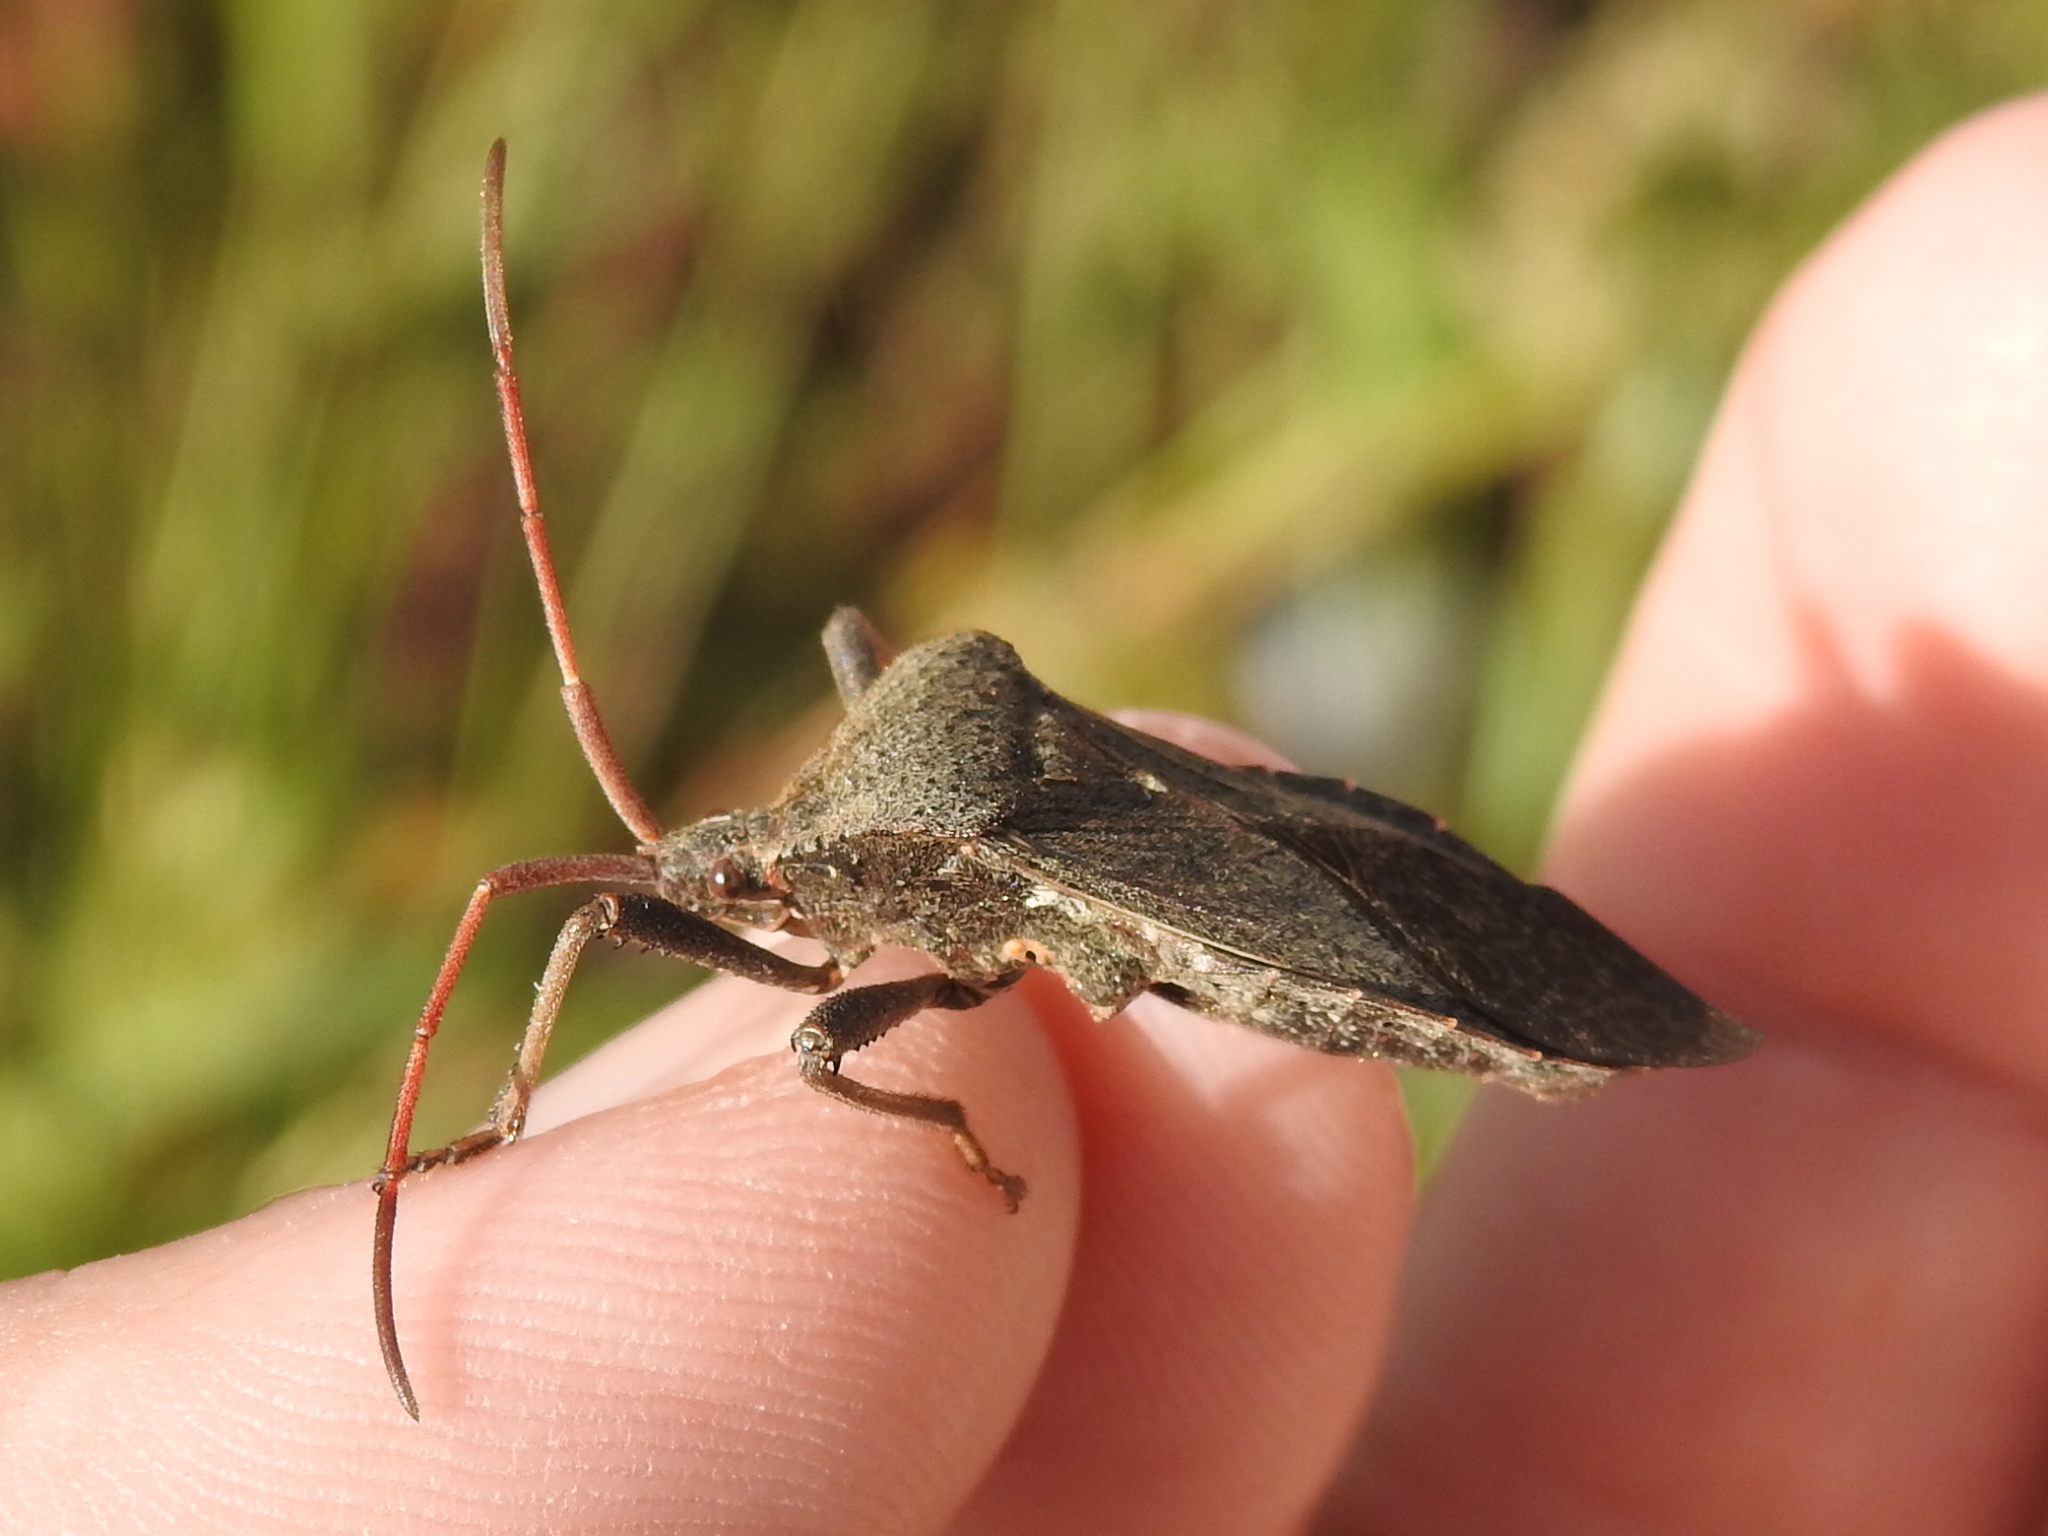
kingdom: Animalia
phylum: Arthropoda
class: Insecta
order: Hemiptera
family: Coreidae
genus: Acanthocephala
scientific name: Acanthocephala femorata
